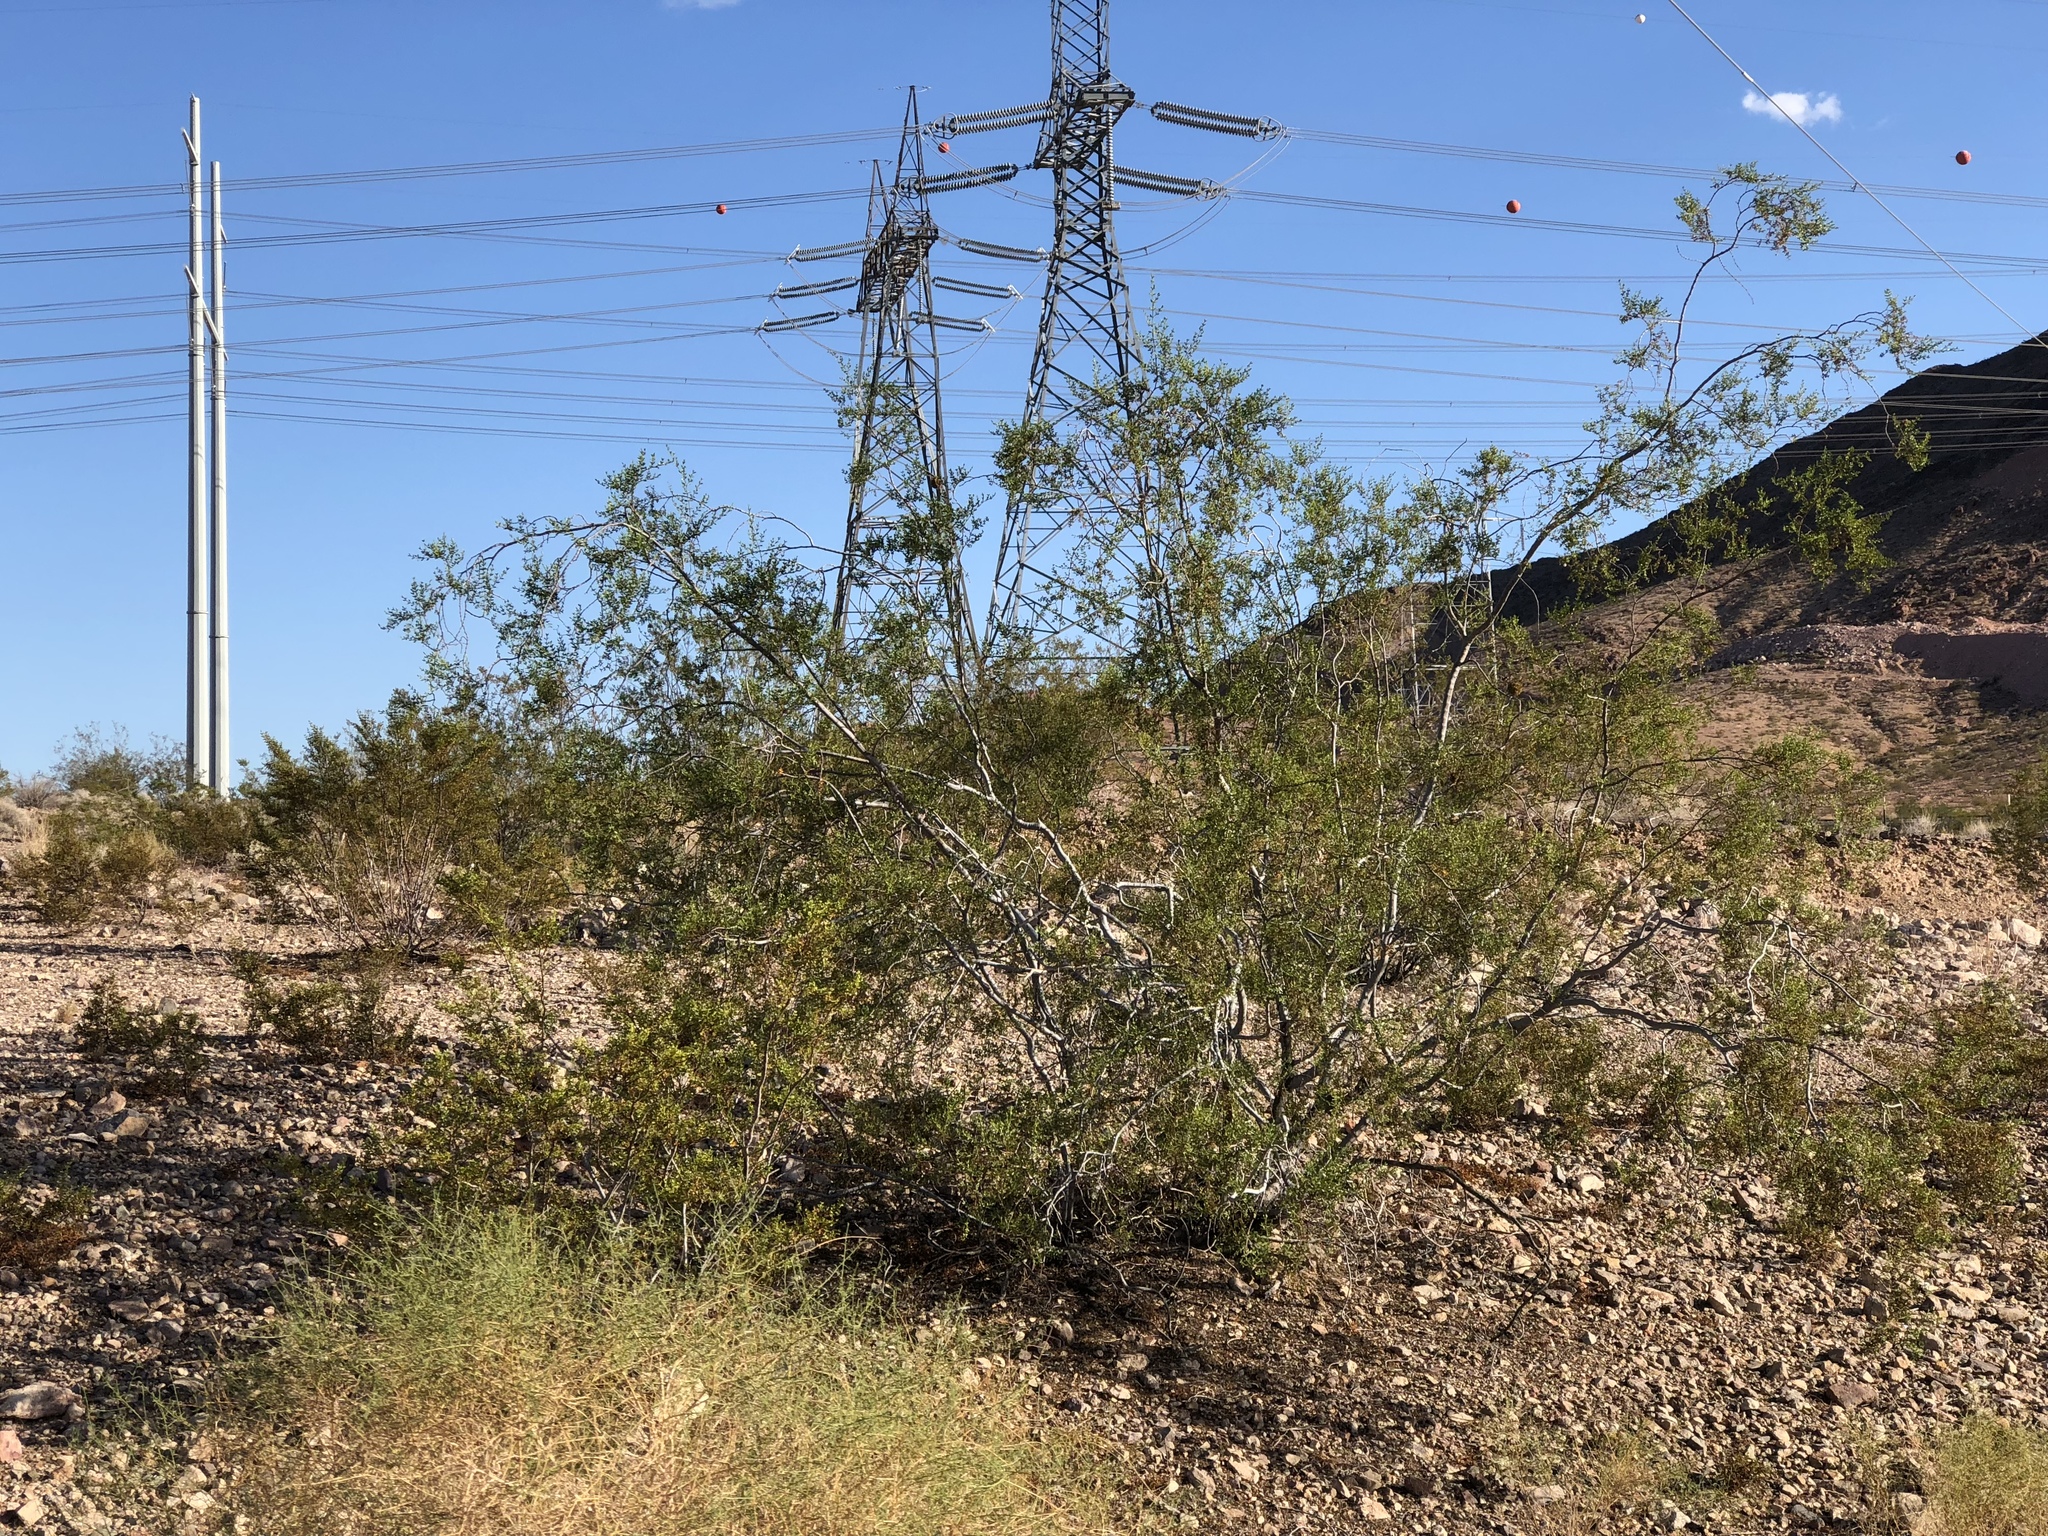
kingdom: Plantae
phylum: Tracheophyta
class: Magnoliopsida
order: Zygophyllales
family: Zygophyllaceae
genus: Larrea
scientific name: Larrea tridentata
